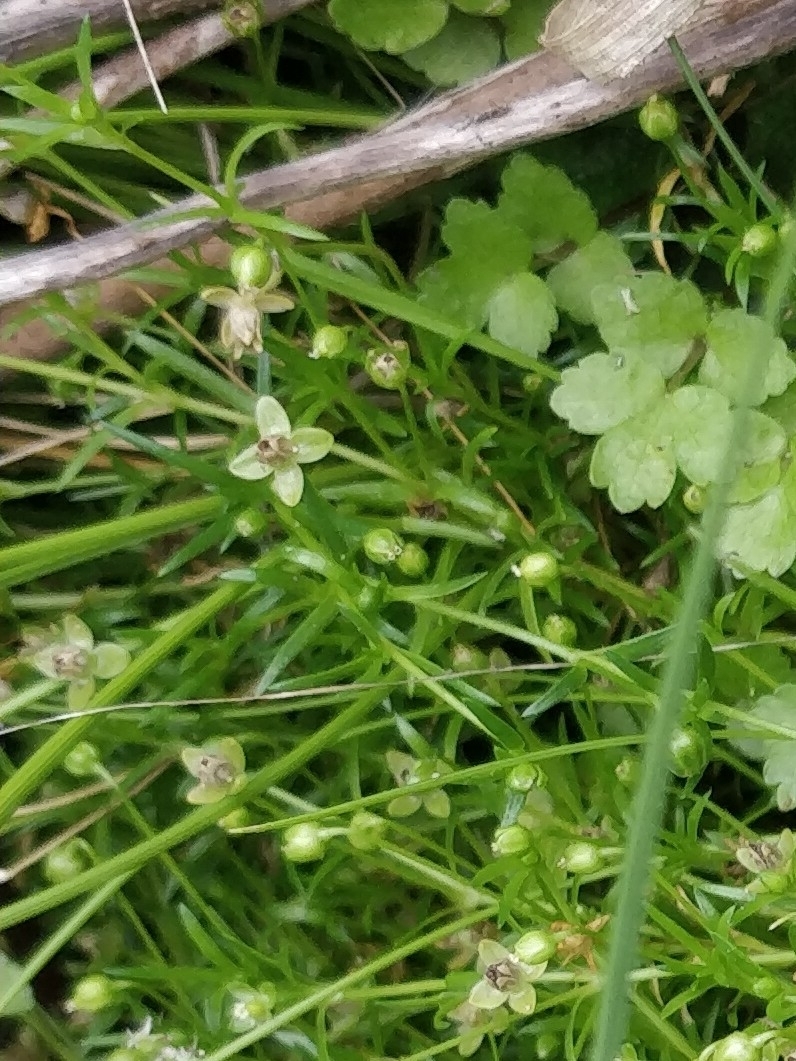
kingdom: Plantae
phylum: Tracheophyta
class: Magnoliopsida
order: Caryophyllales
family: Caryophyllaceae
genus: Sagina
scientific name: Sagina procumbens
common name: Procumbent pearlwort
